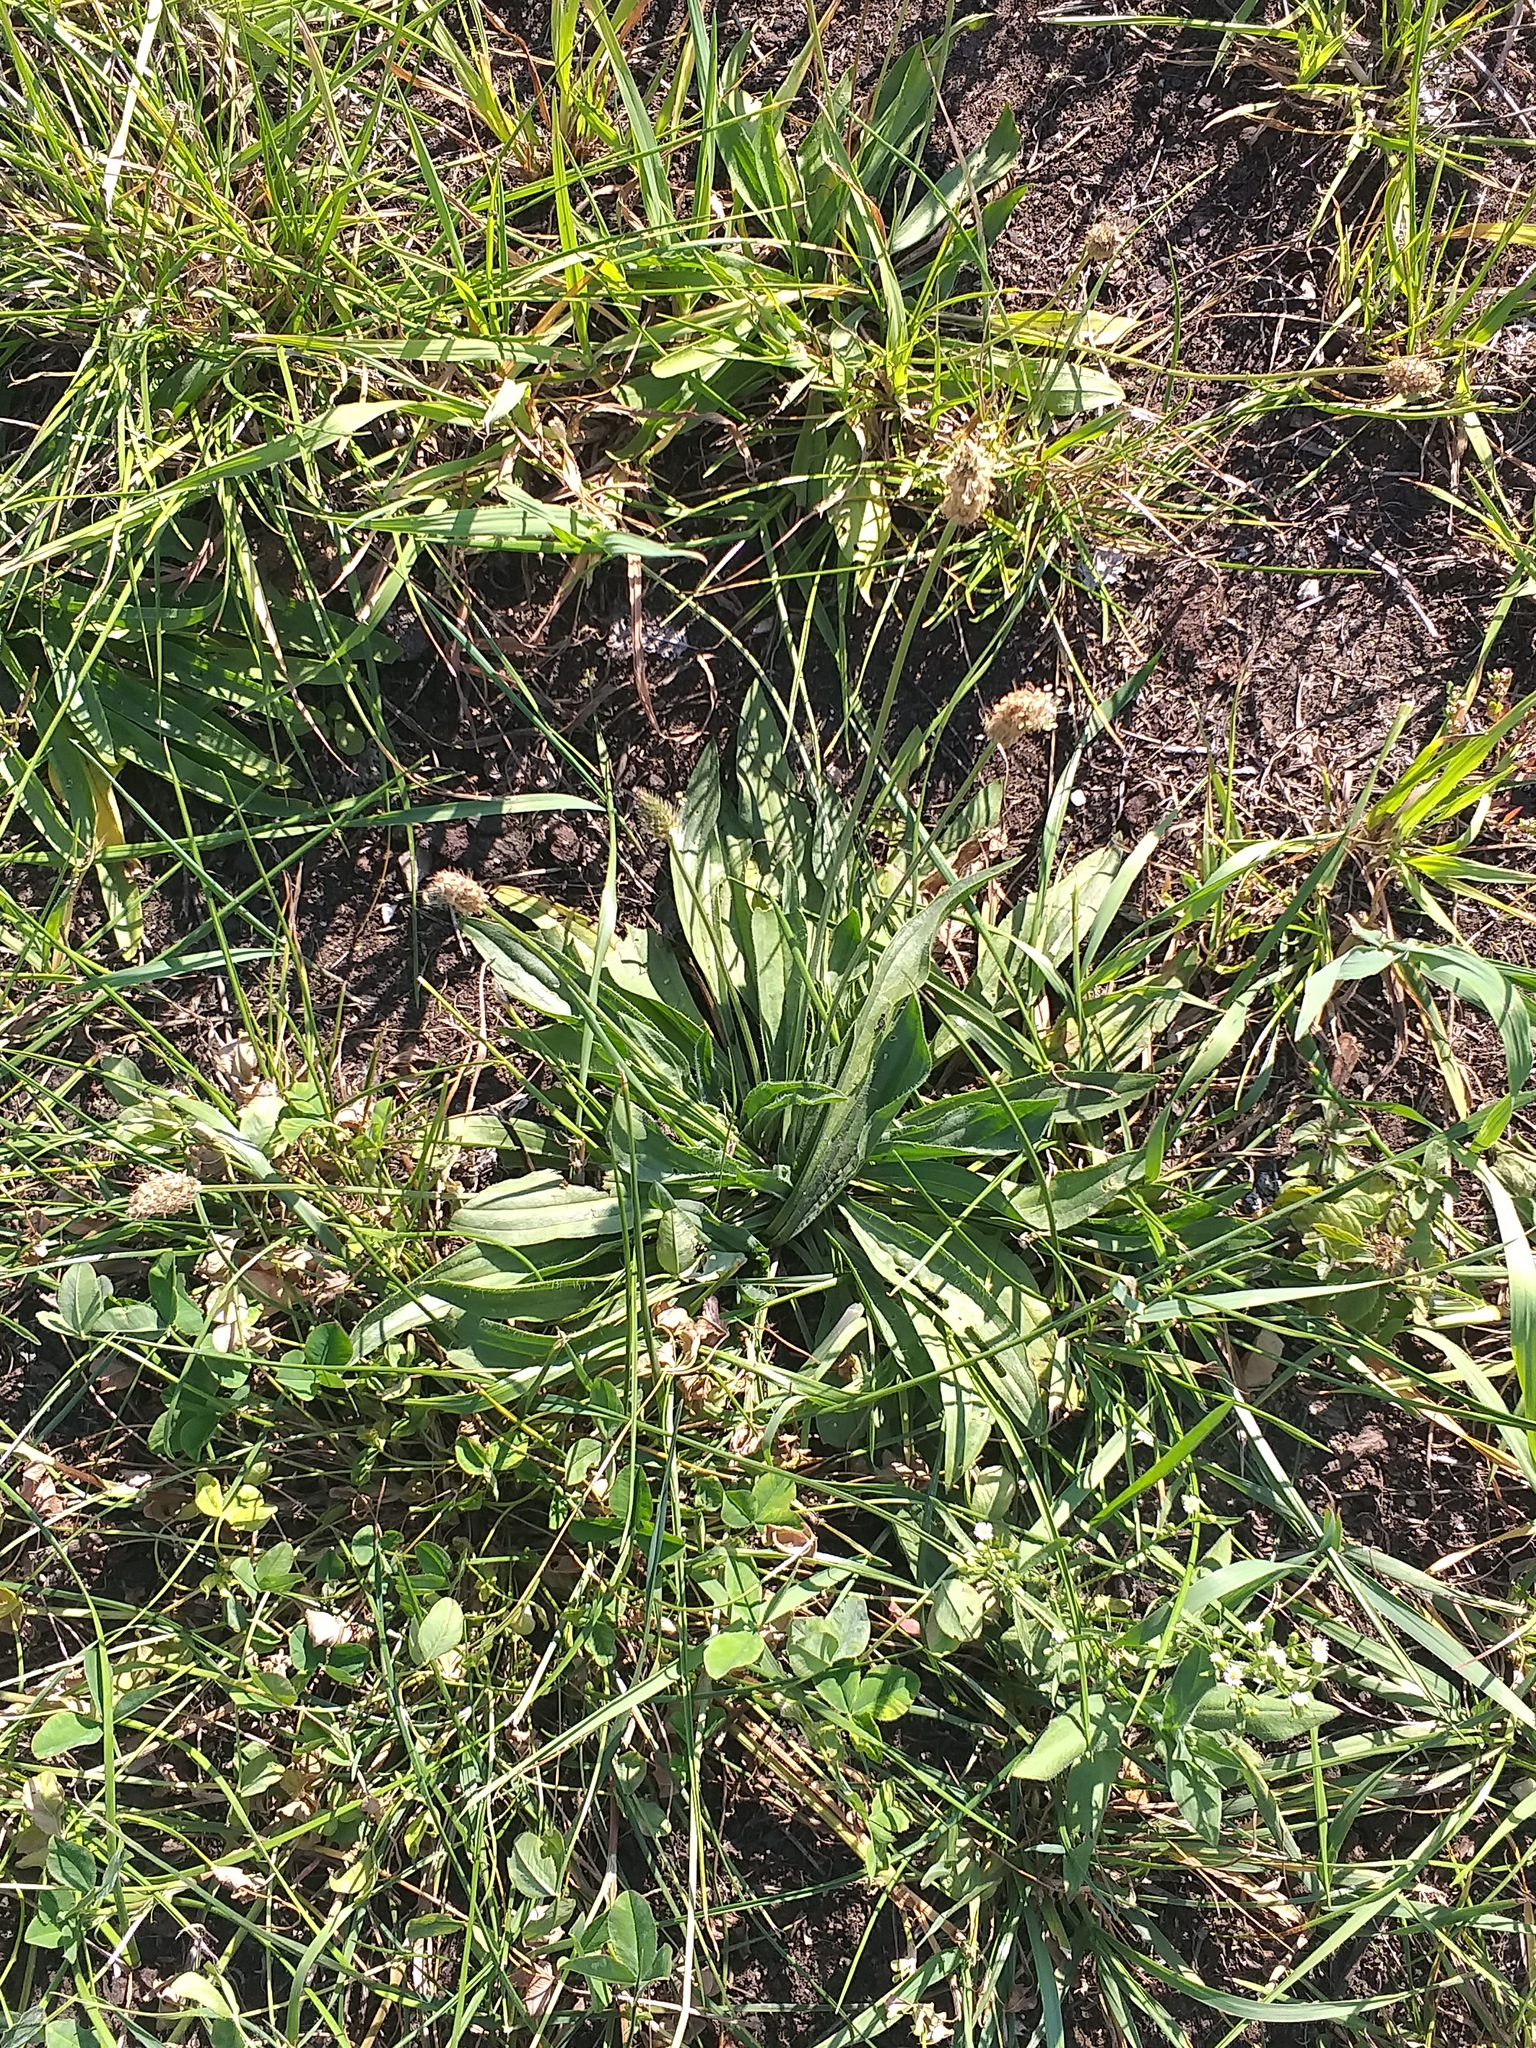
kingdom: Plantae
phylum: Tracheophyta
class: Magnoliopsida
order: Lamiales
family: Plantaginaceae
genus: Plantago
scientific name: Plantago lanceolata
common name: Ribwort plantain
